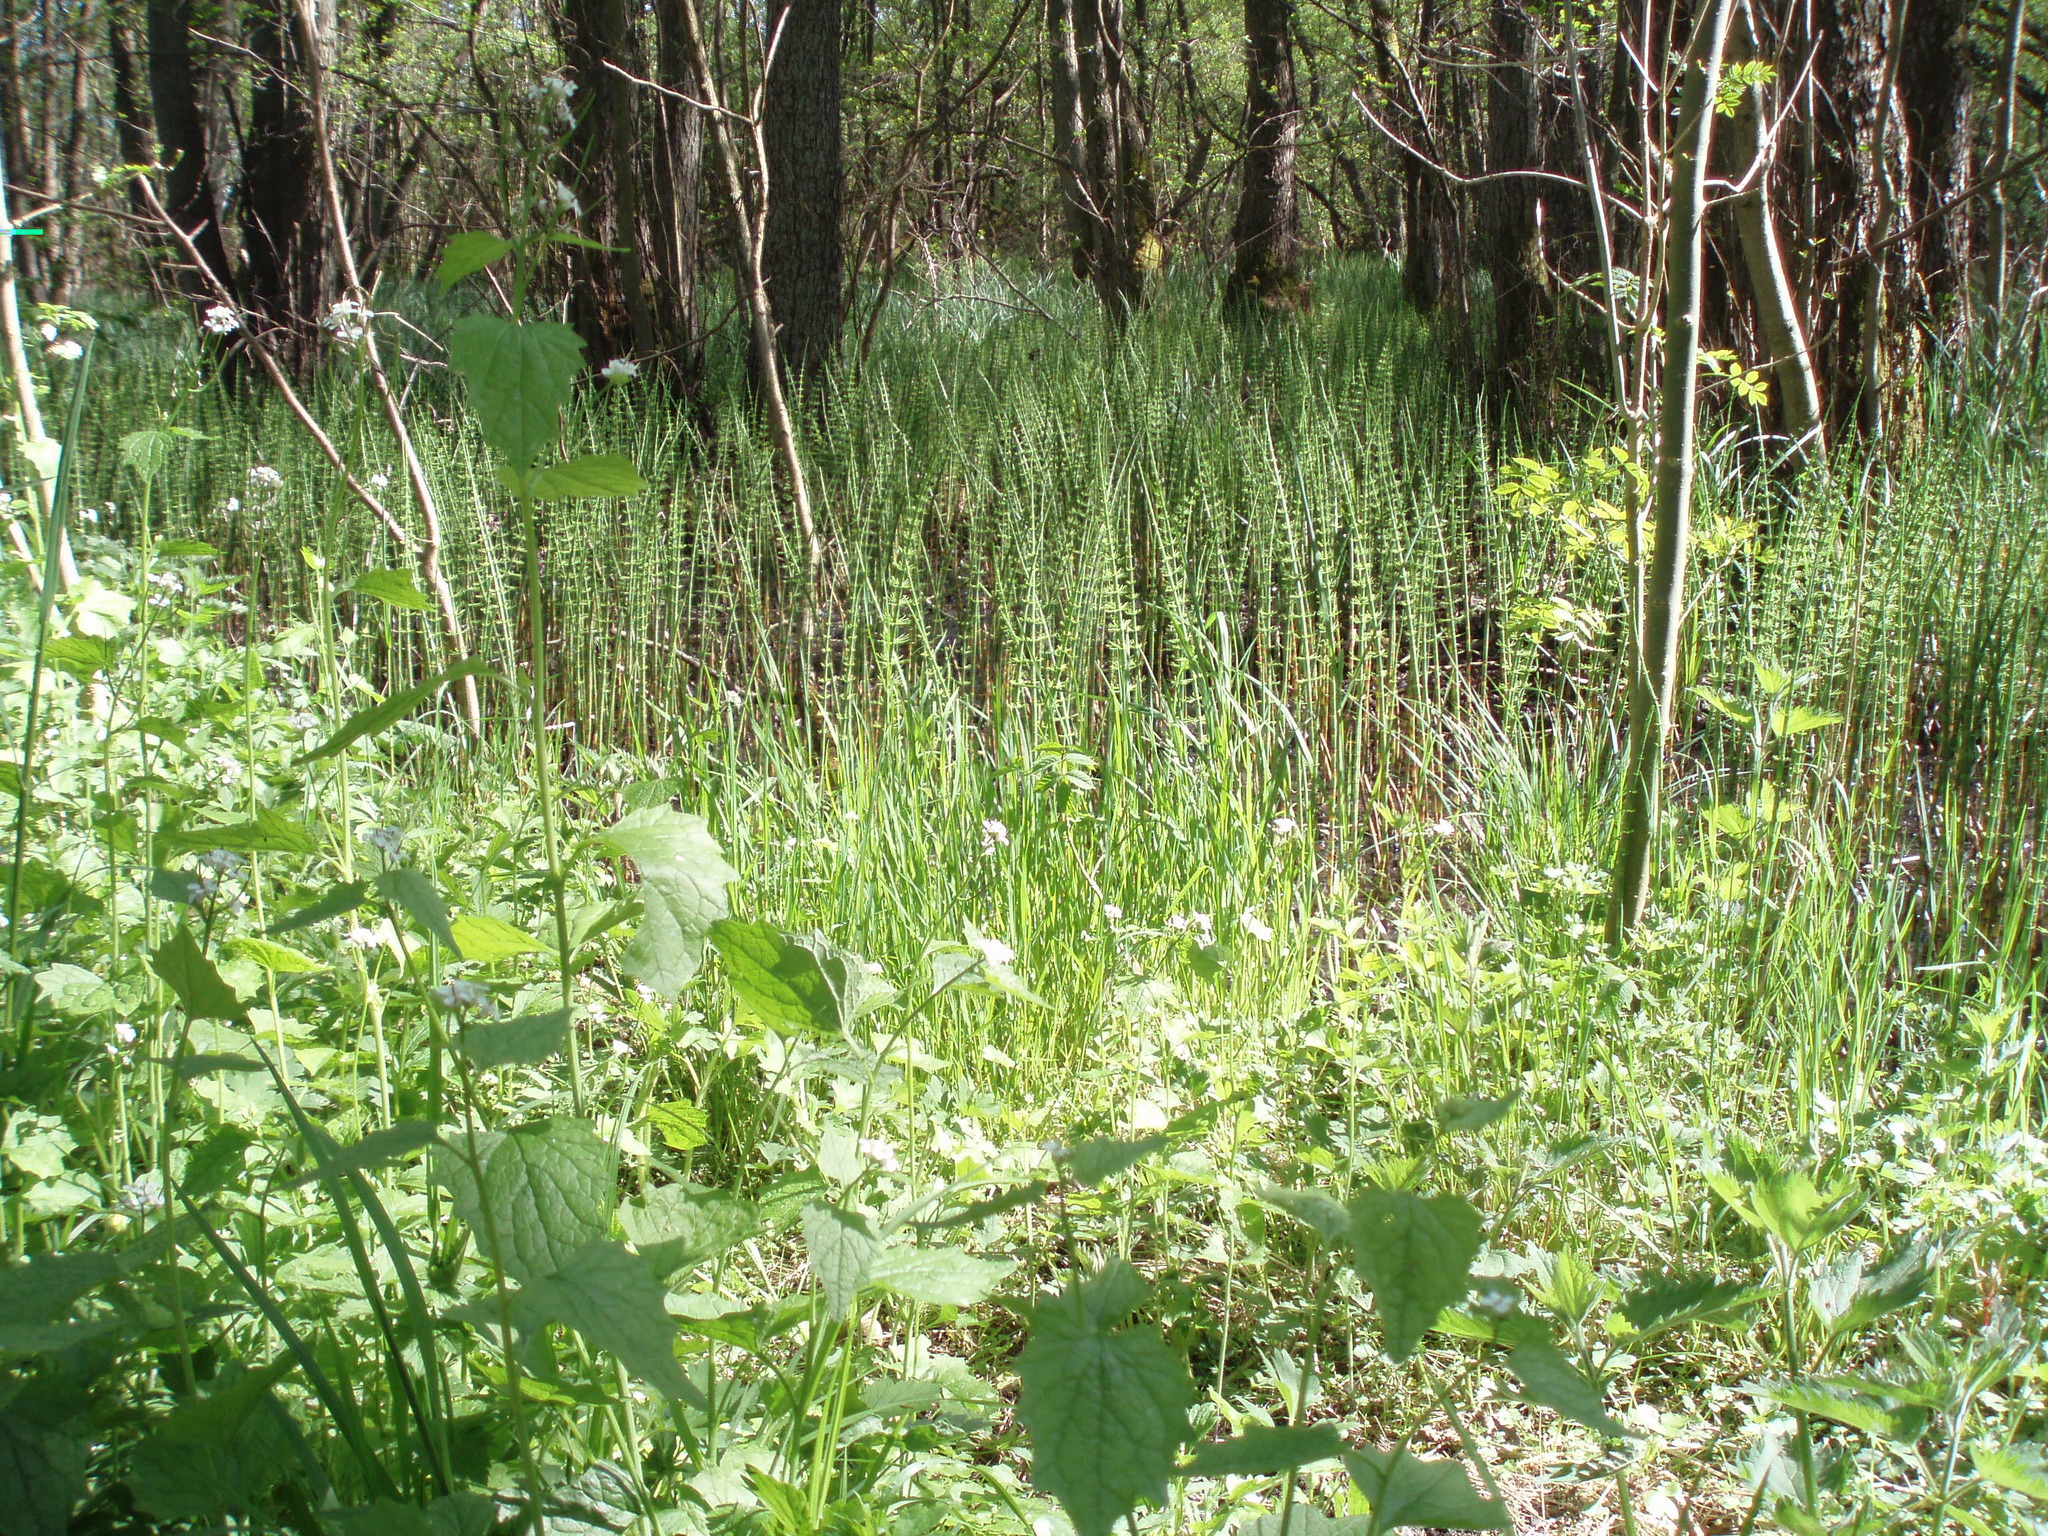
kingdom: Plantae
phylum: Tracheophyta
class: Polypodiopsida
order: Equisetales
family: Equisetaceae
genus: Equisetum
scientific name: Equisetum fluviatile
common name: Water horsetail
